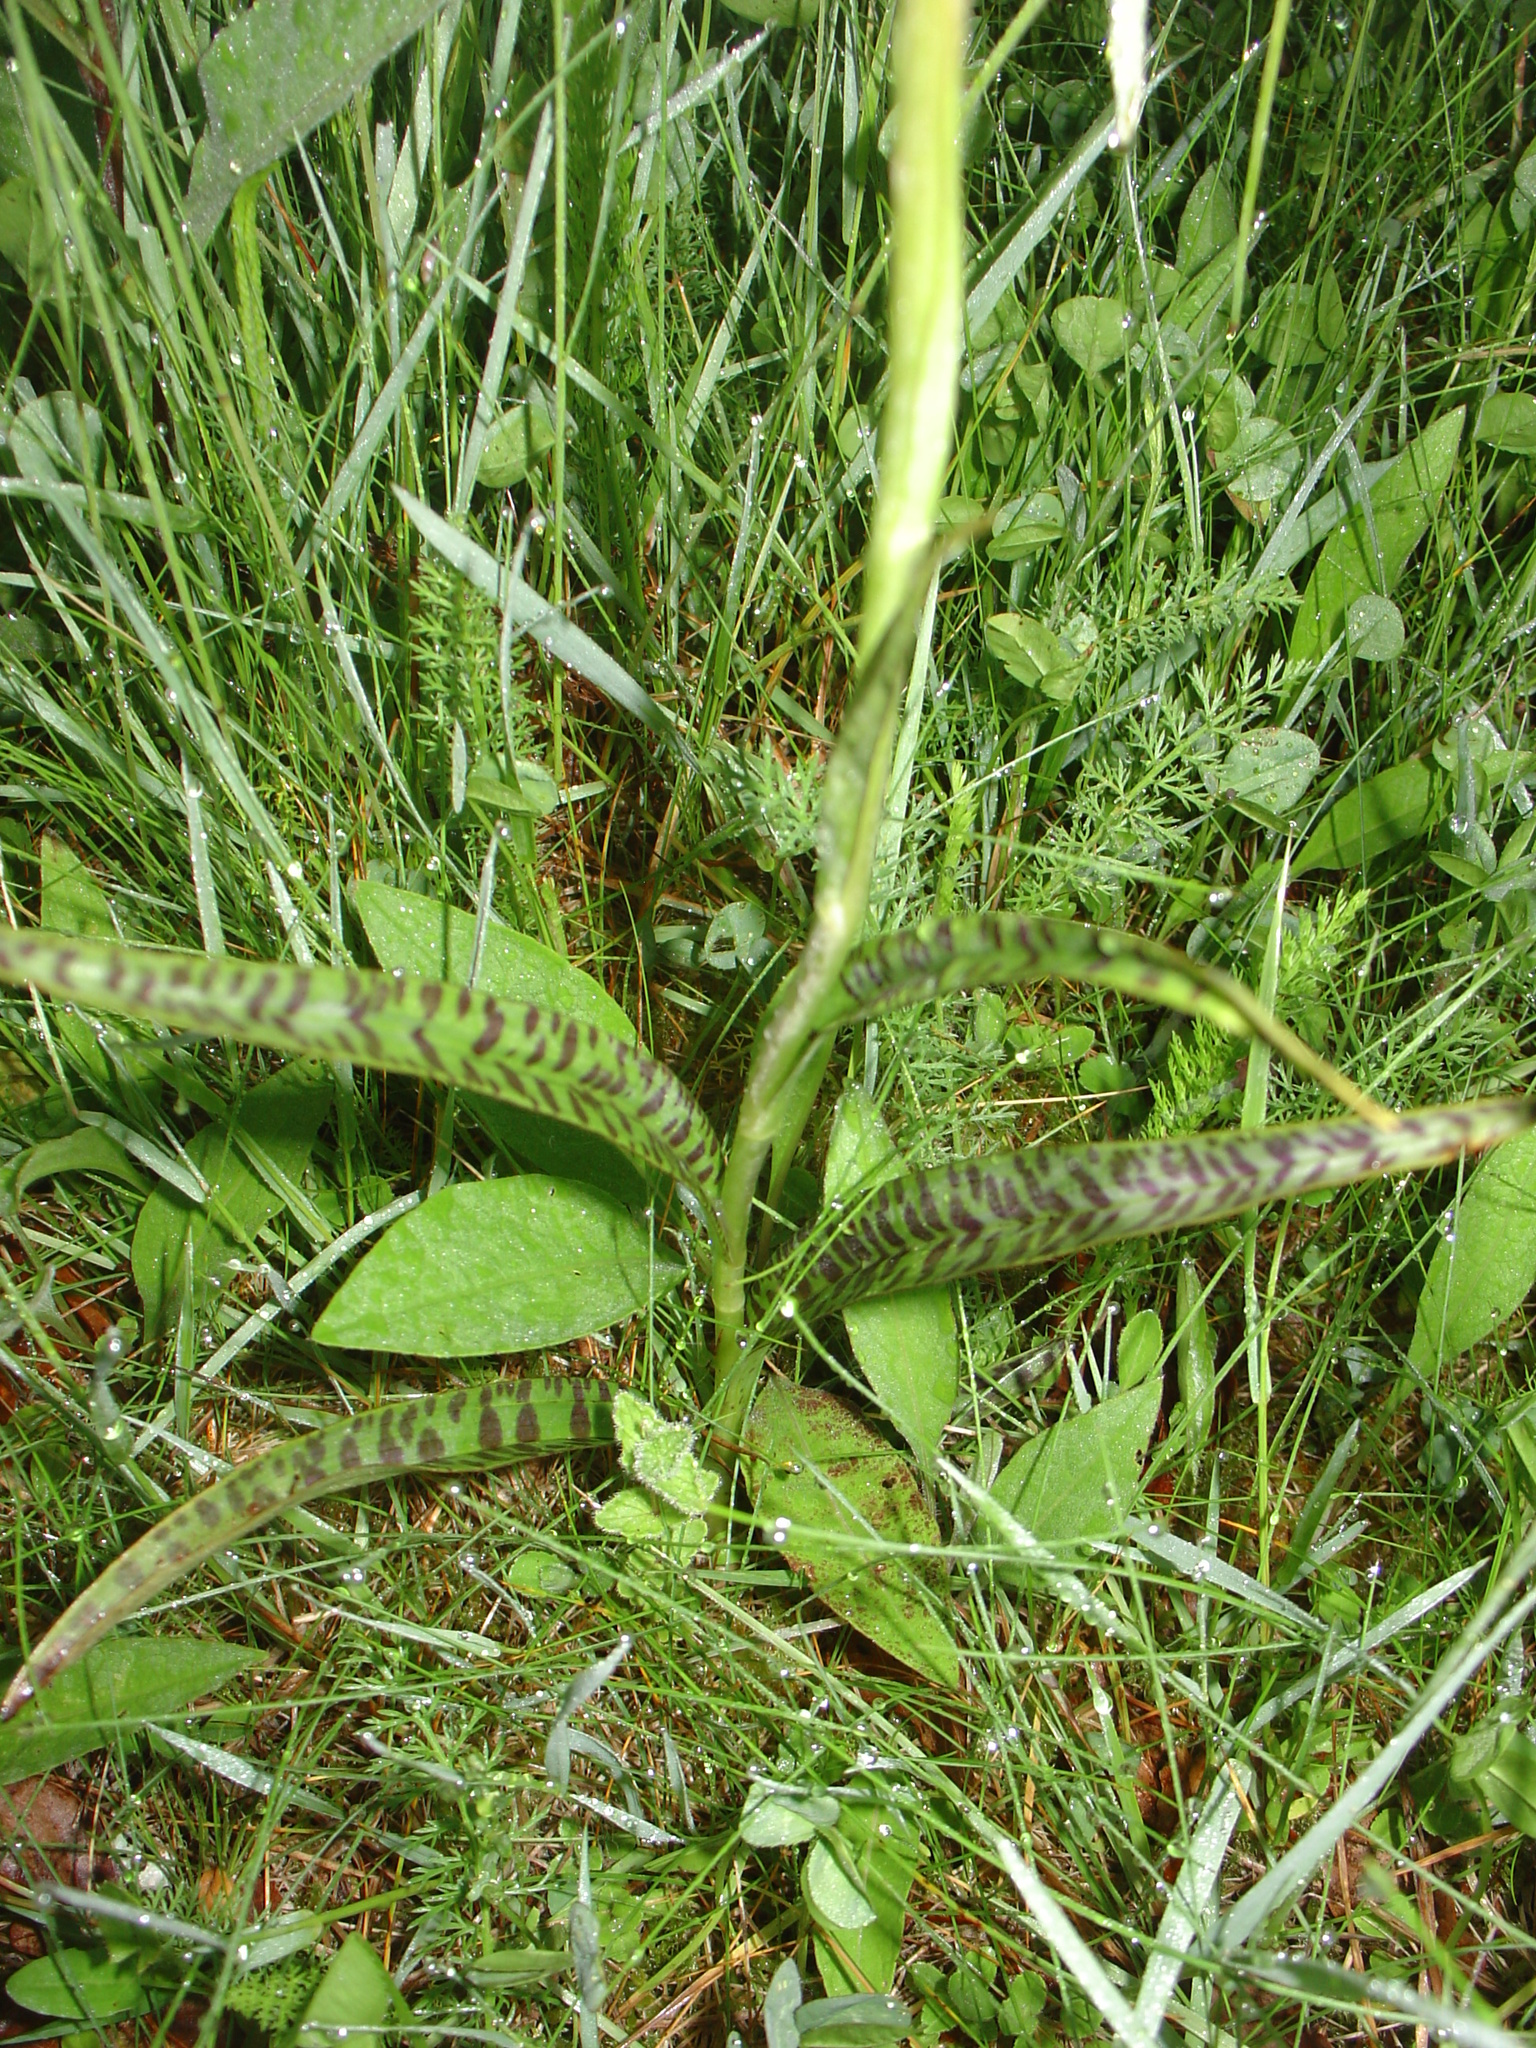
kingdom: Plantae
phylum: Tracheophyta
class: Liliopsida
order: Asparagales
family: Orchidaceae
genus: Dactylorhiza
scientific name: Dactylorhiza maculata
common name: Heath spotted-orchid
